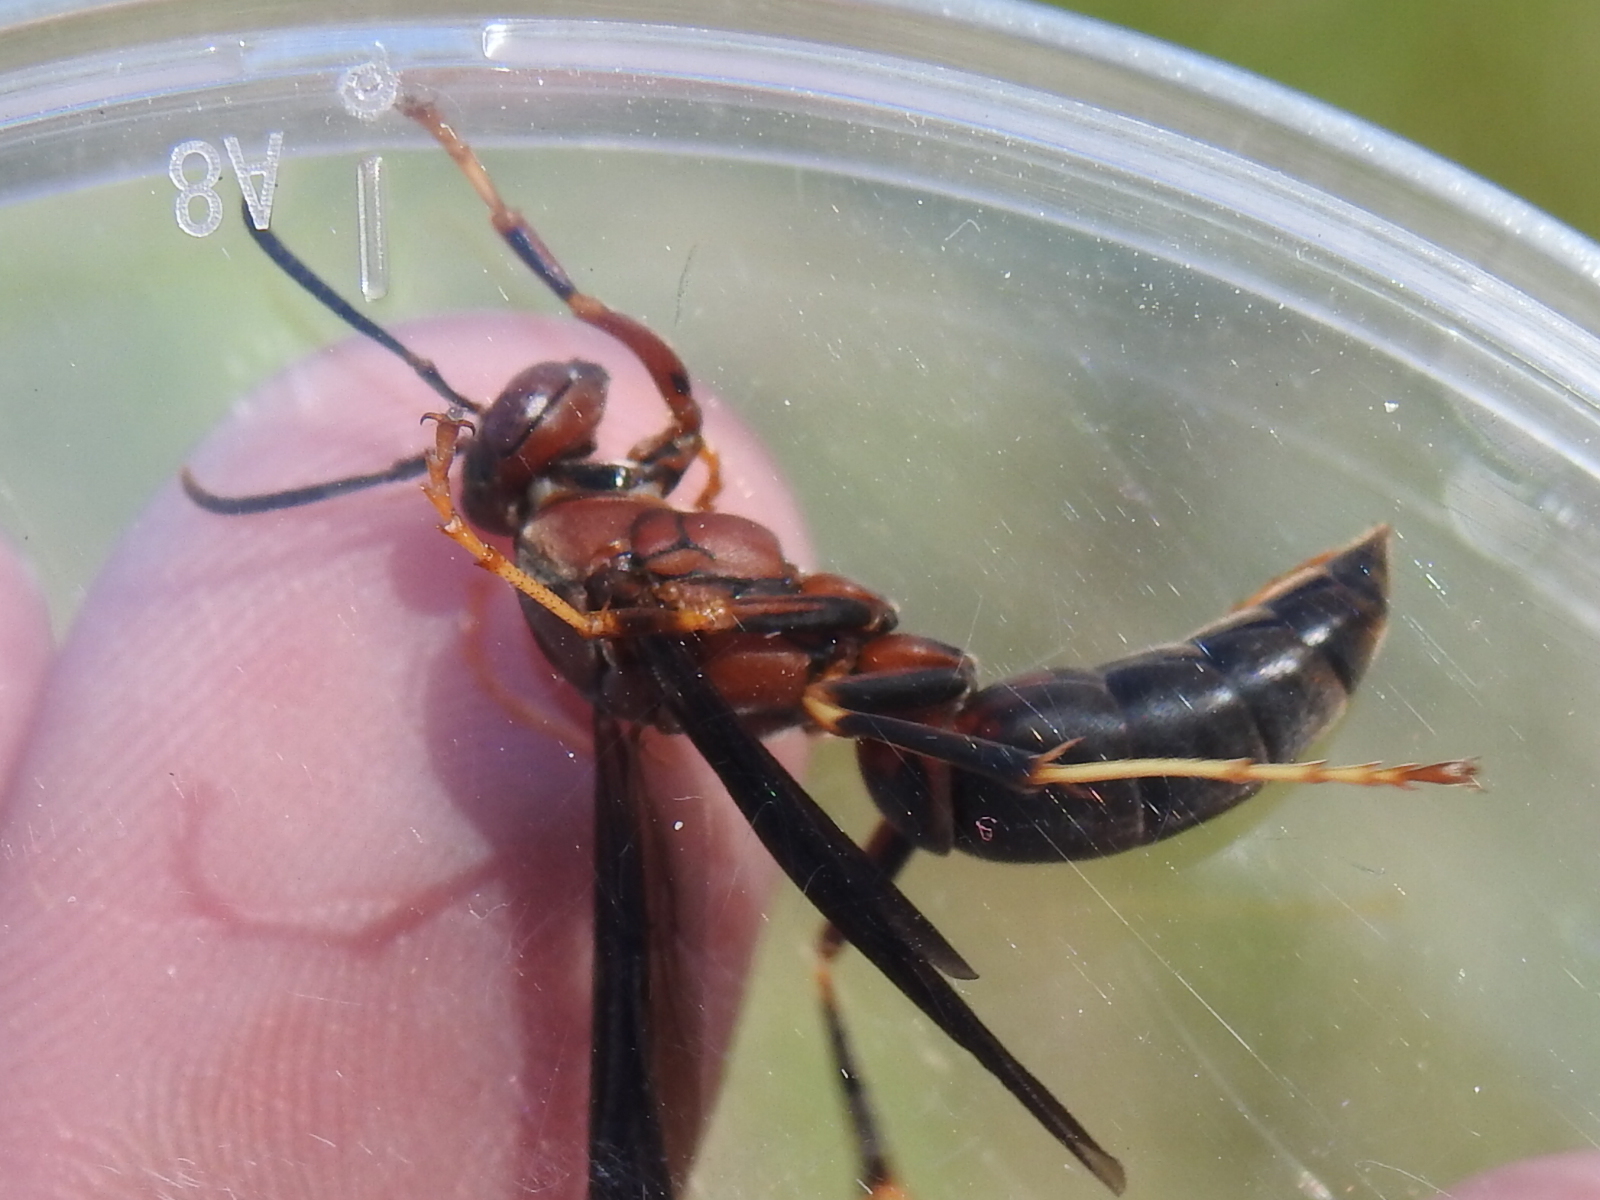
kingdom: Animalia
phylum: Arthropoda
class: Insecta
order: Hymenoptera
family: Eumenidae
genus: Polistes
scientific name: Polistes metricus
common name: Metric paper wasp
